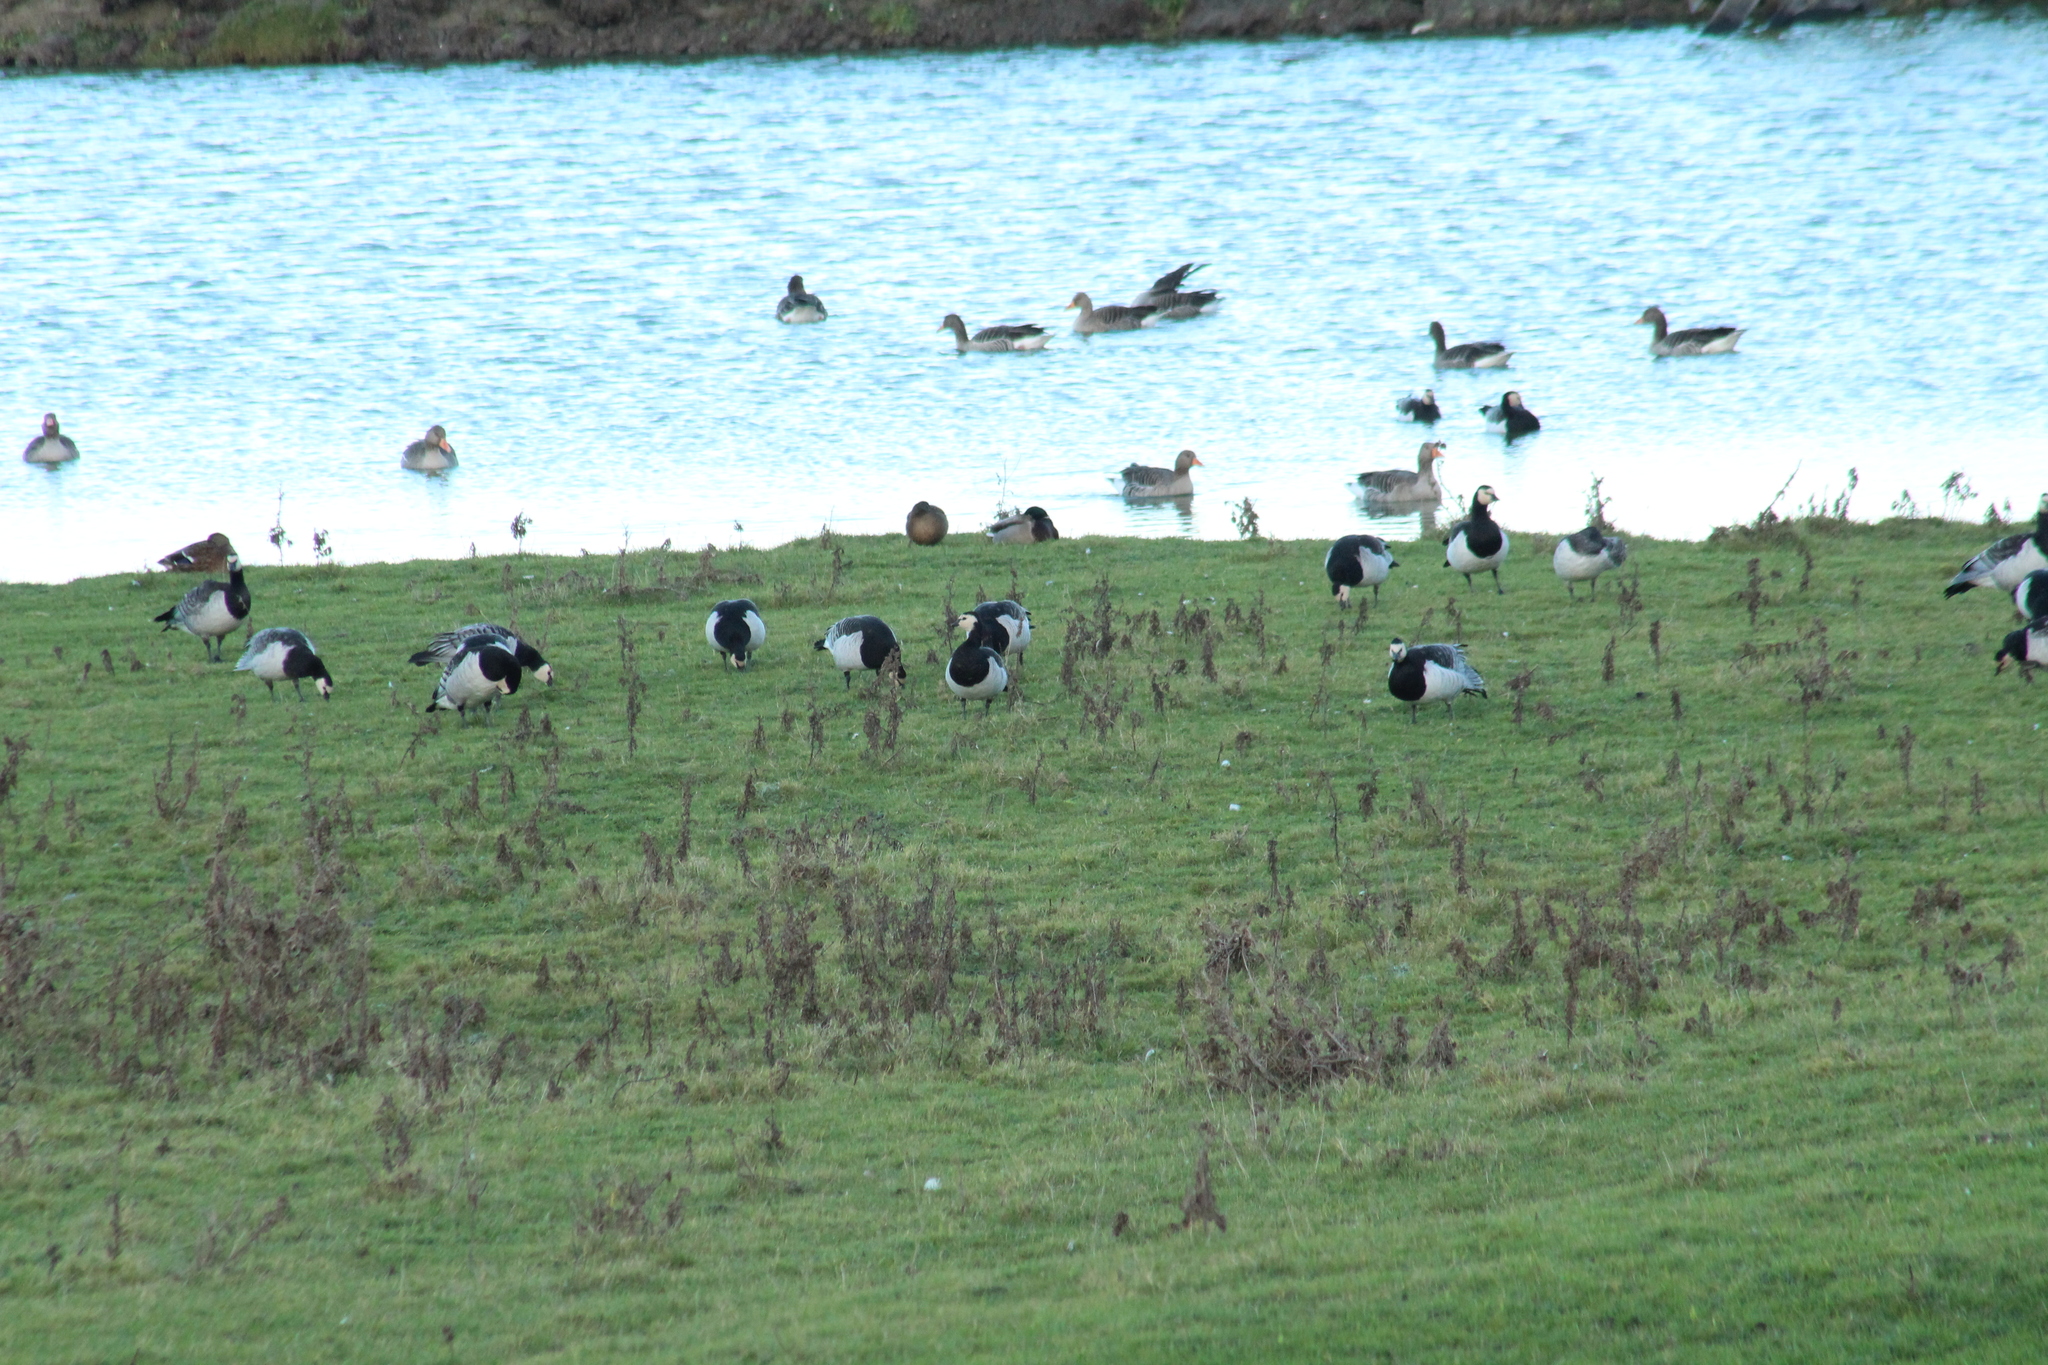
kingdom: Animalia
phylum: Chordata
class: Aves
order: Anseriformes
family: Anatidae
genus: Branta
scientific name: Branta leucopsis
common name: Barnacle goose
